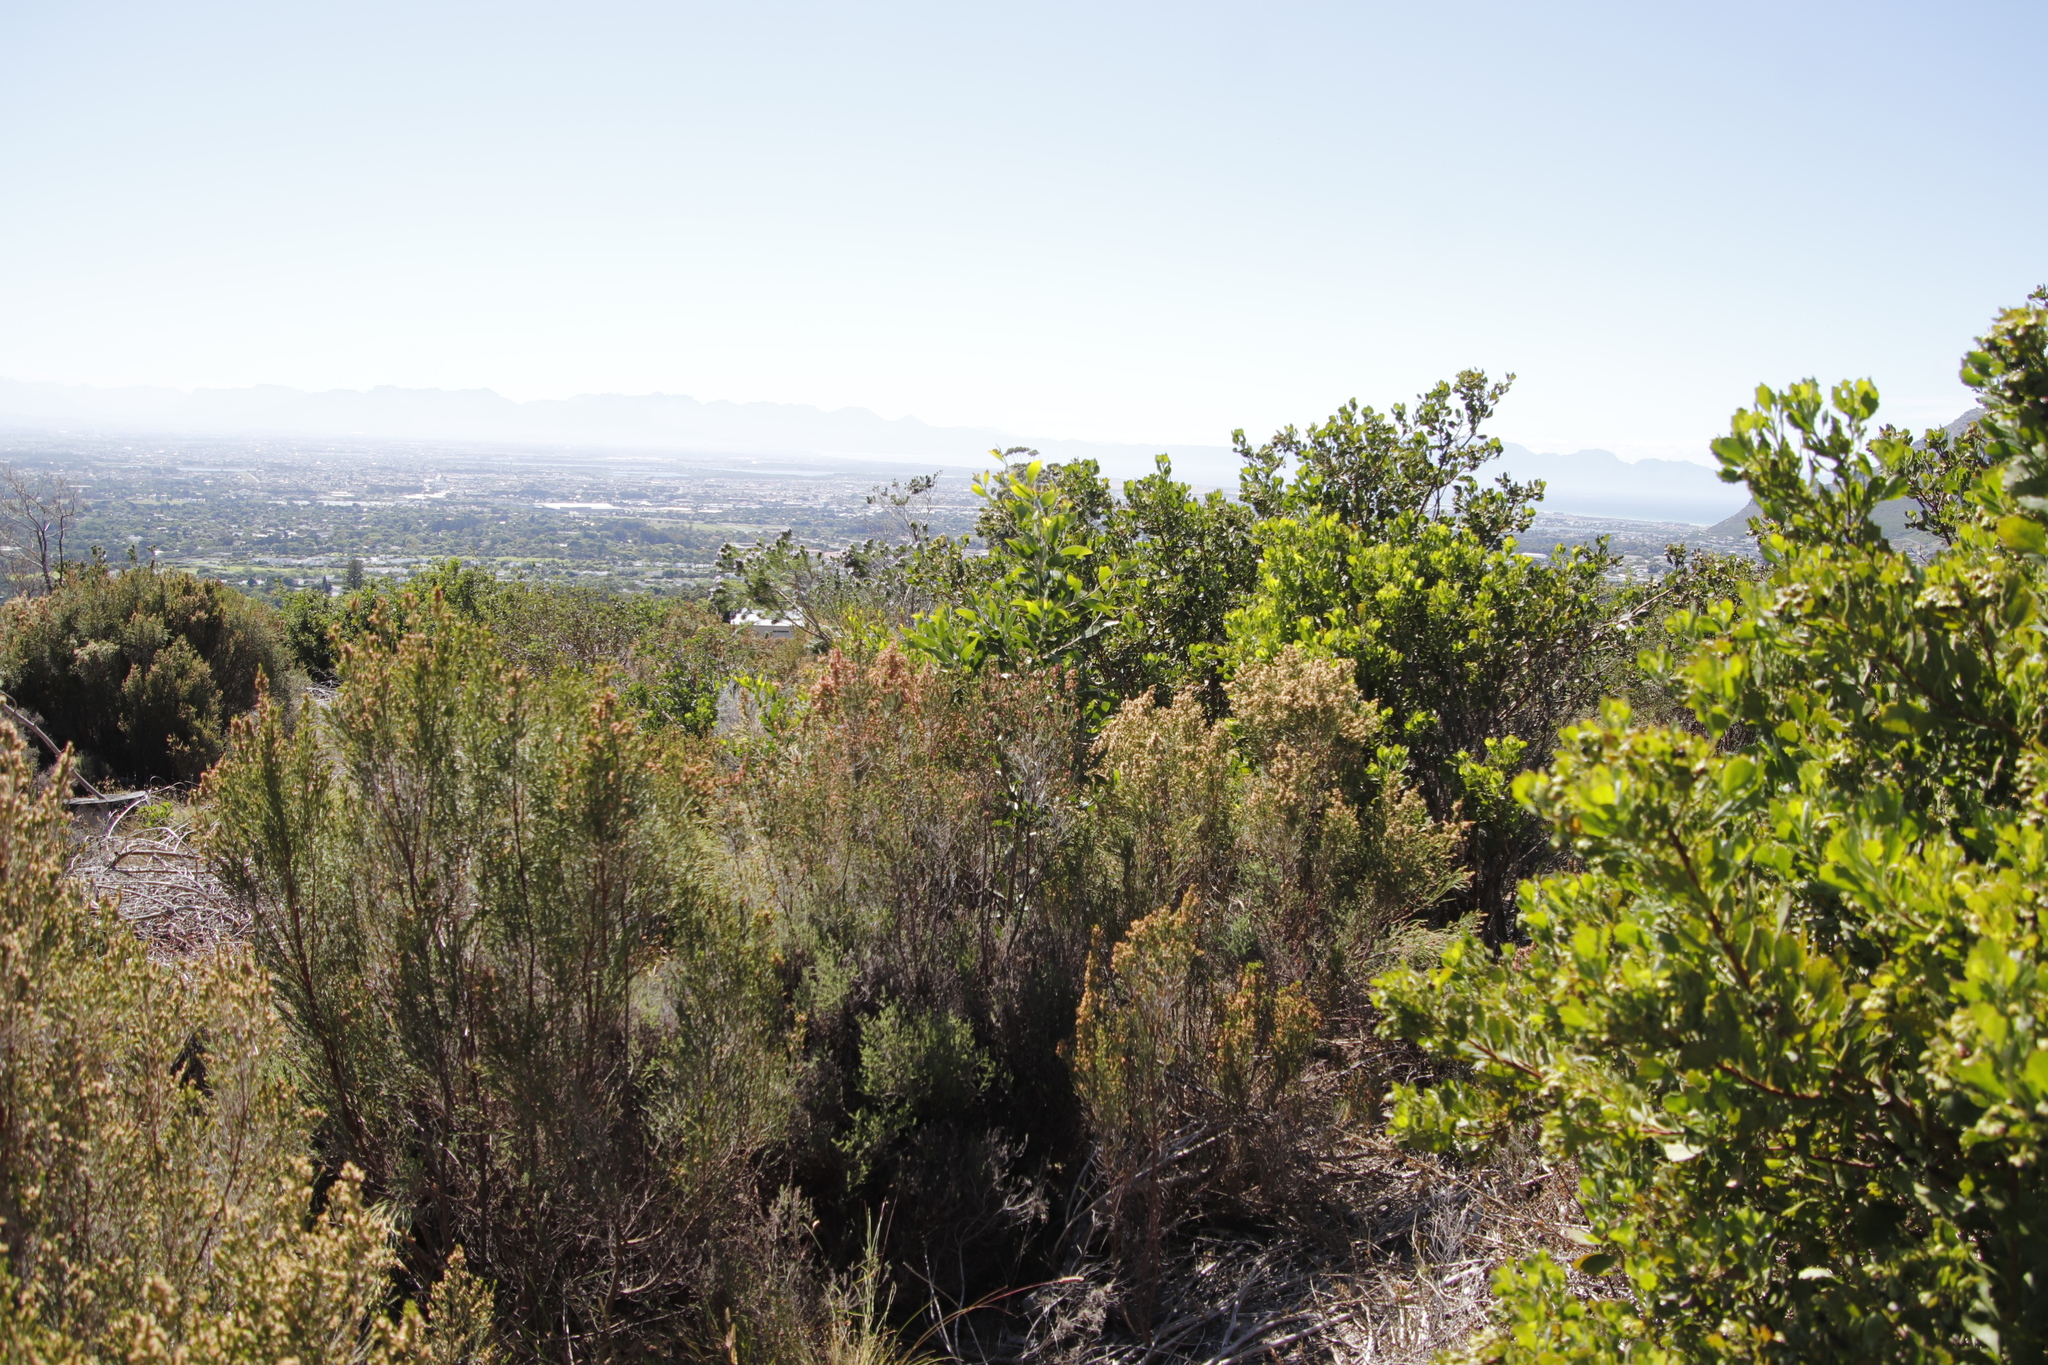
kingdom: Plantae
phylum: Tracheophyta
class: Magnoliopsida
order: Malvales
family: Thymelaeaceae
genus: Passerina
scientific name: Passerina corymbosa
